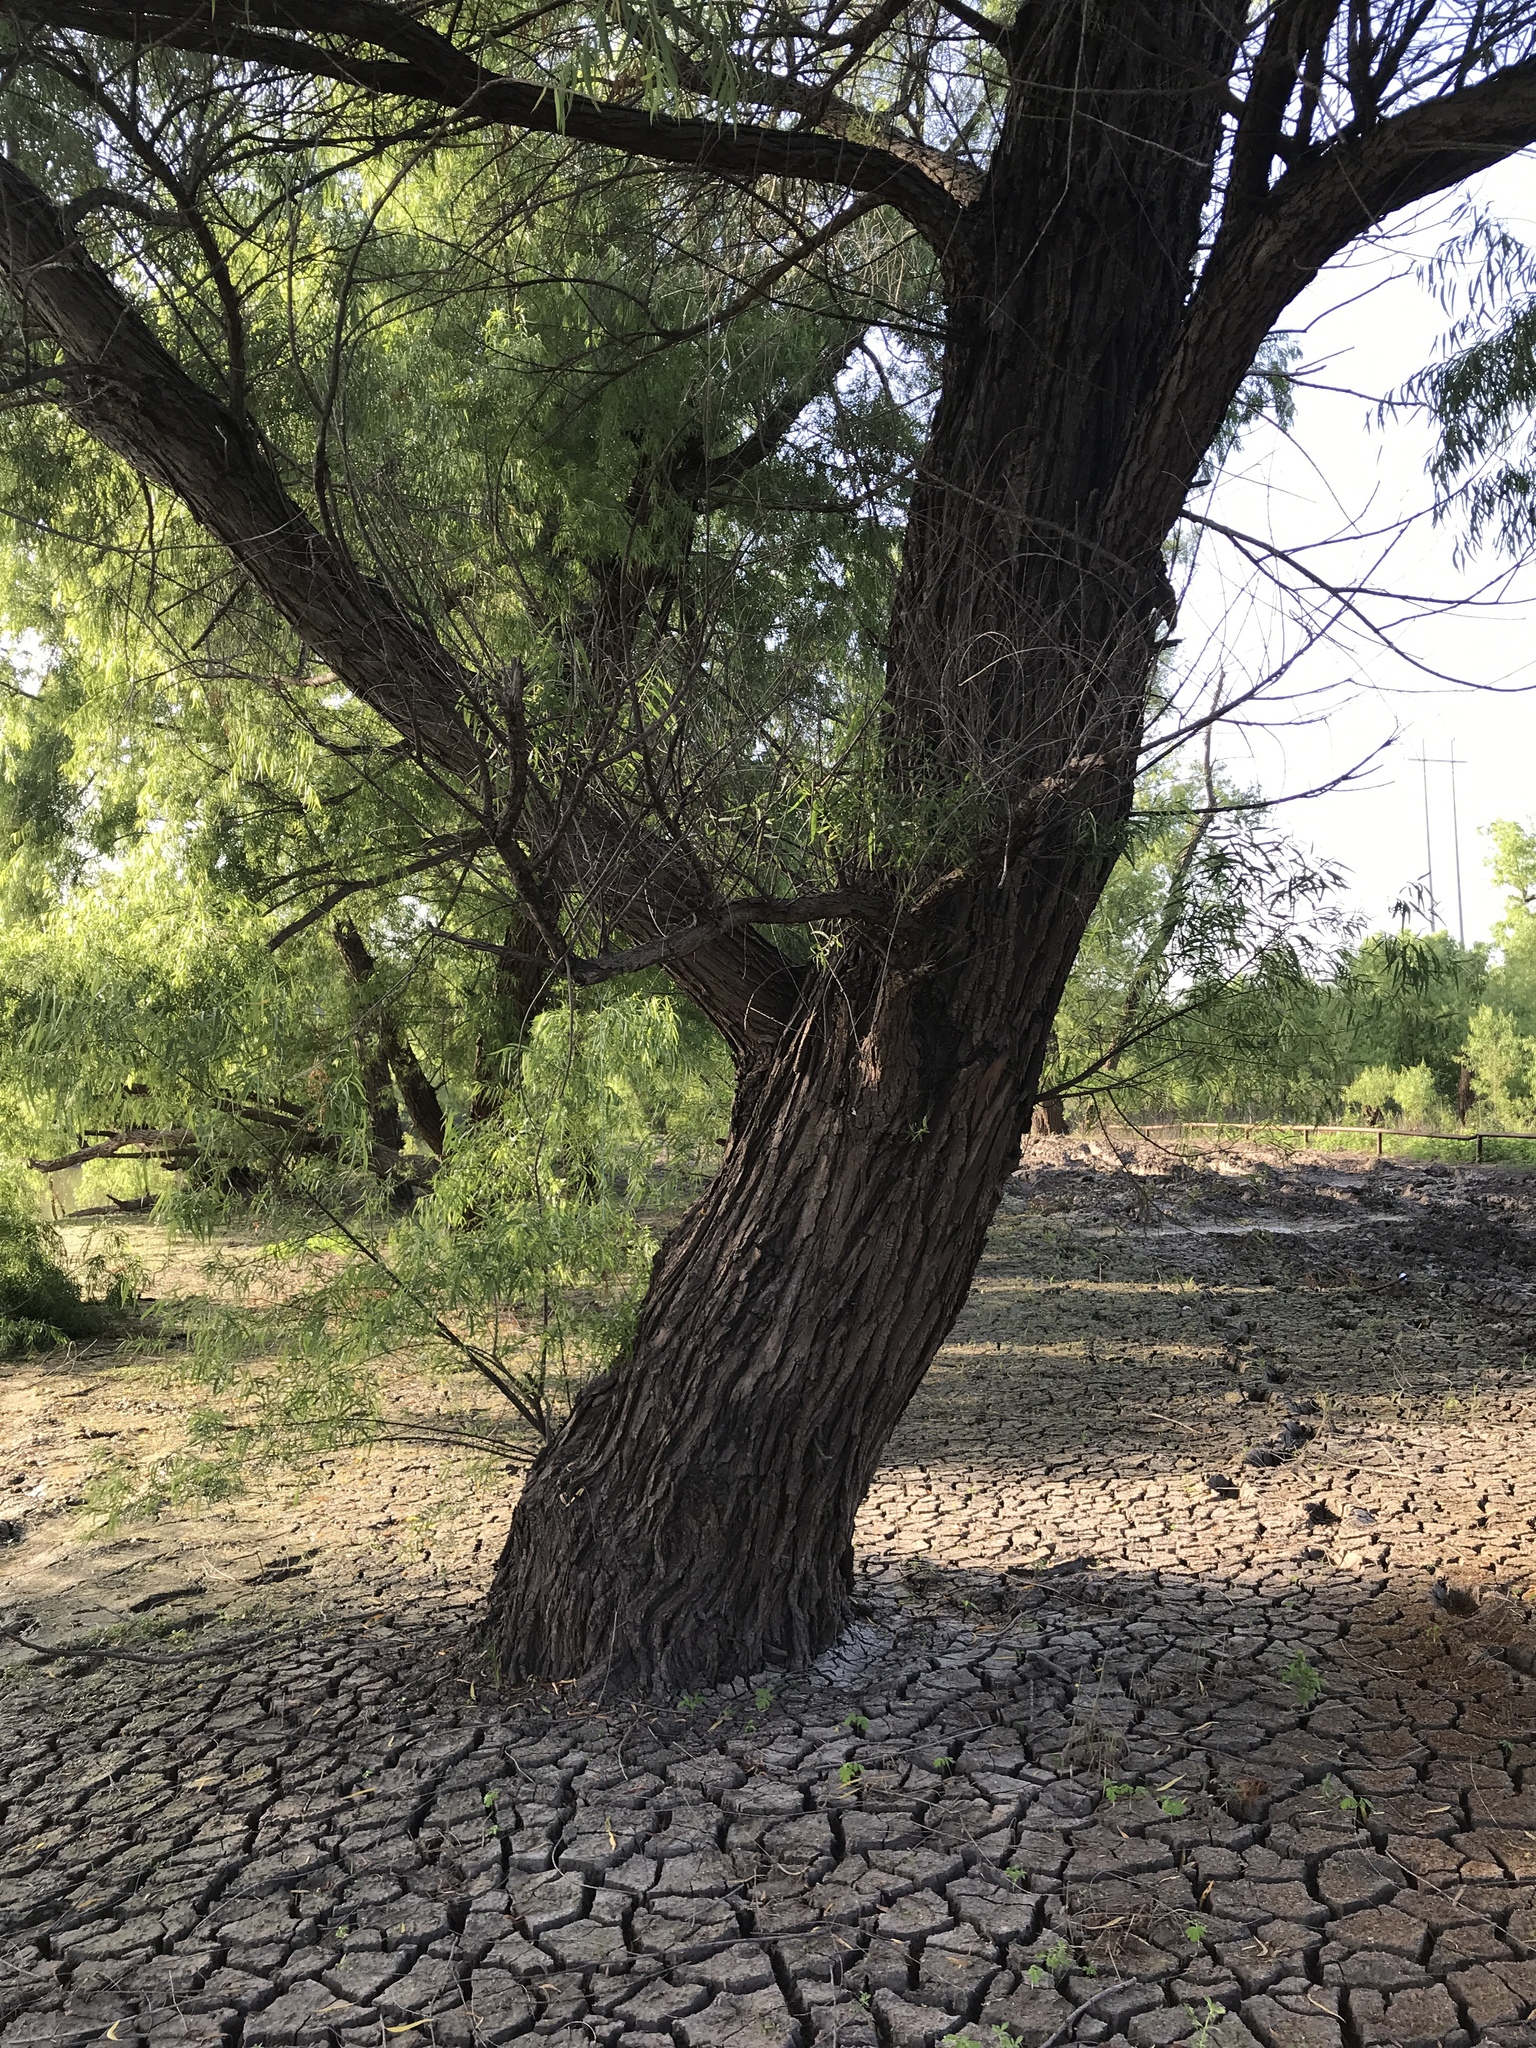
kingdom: Plantae
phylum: Tracheophyta
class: Magnoliopsida
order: Malpighiales
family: Salicaceae
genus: Salix
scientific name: Salix nigra
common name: Black willow
